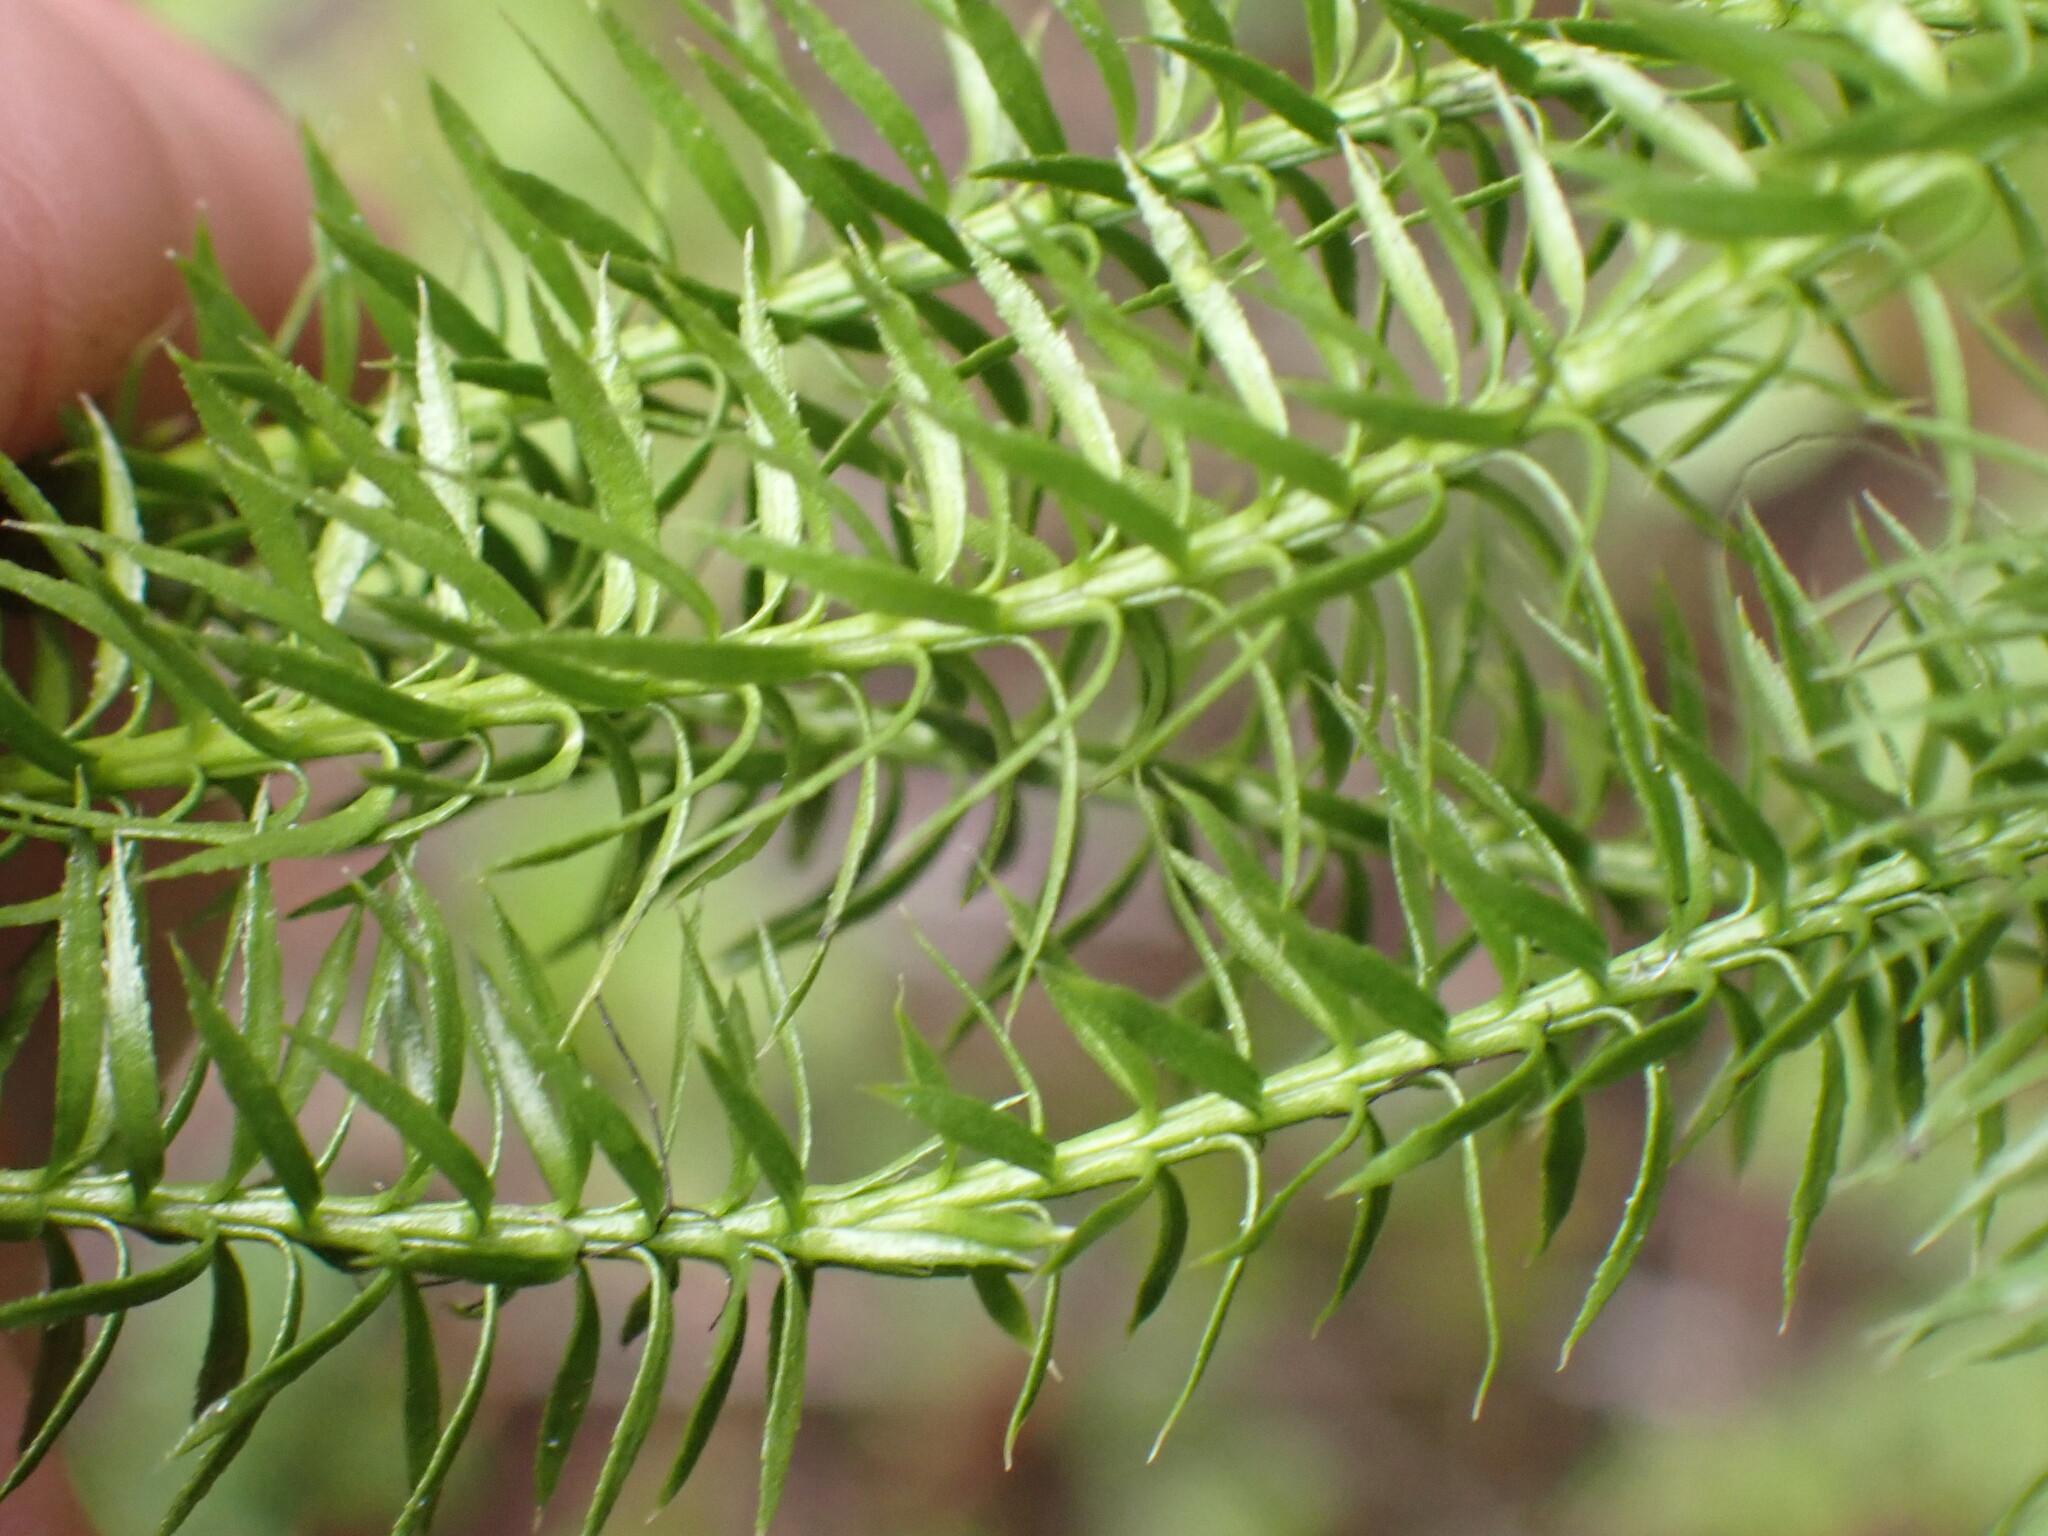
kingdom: Plantae
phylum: Tracheophyta
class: Lycopodiopsida
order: Lycopodiales
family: Lycopodiaceae
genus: Spinulum
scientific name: Spinulum annotinum
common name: Interrupted club-moss
